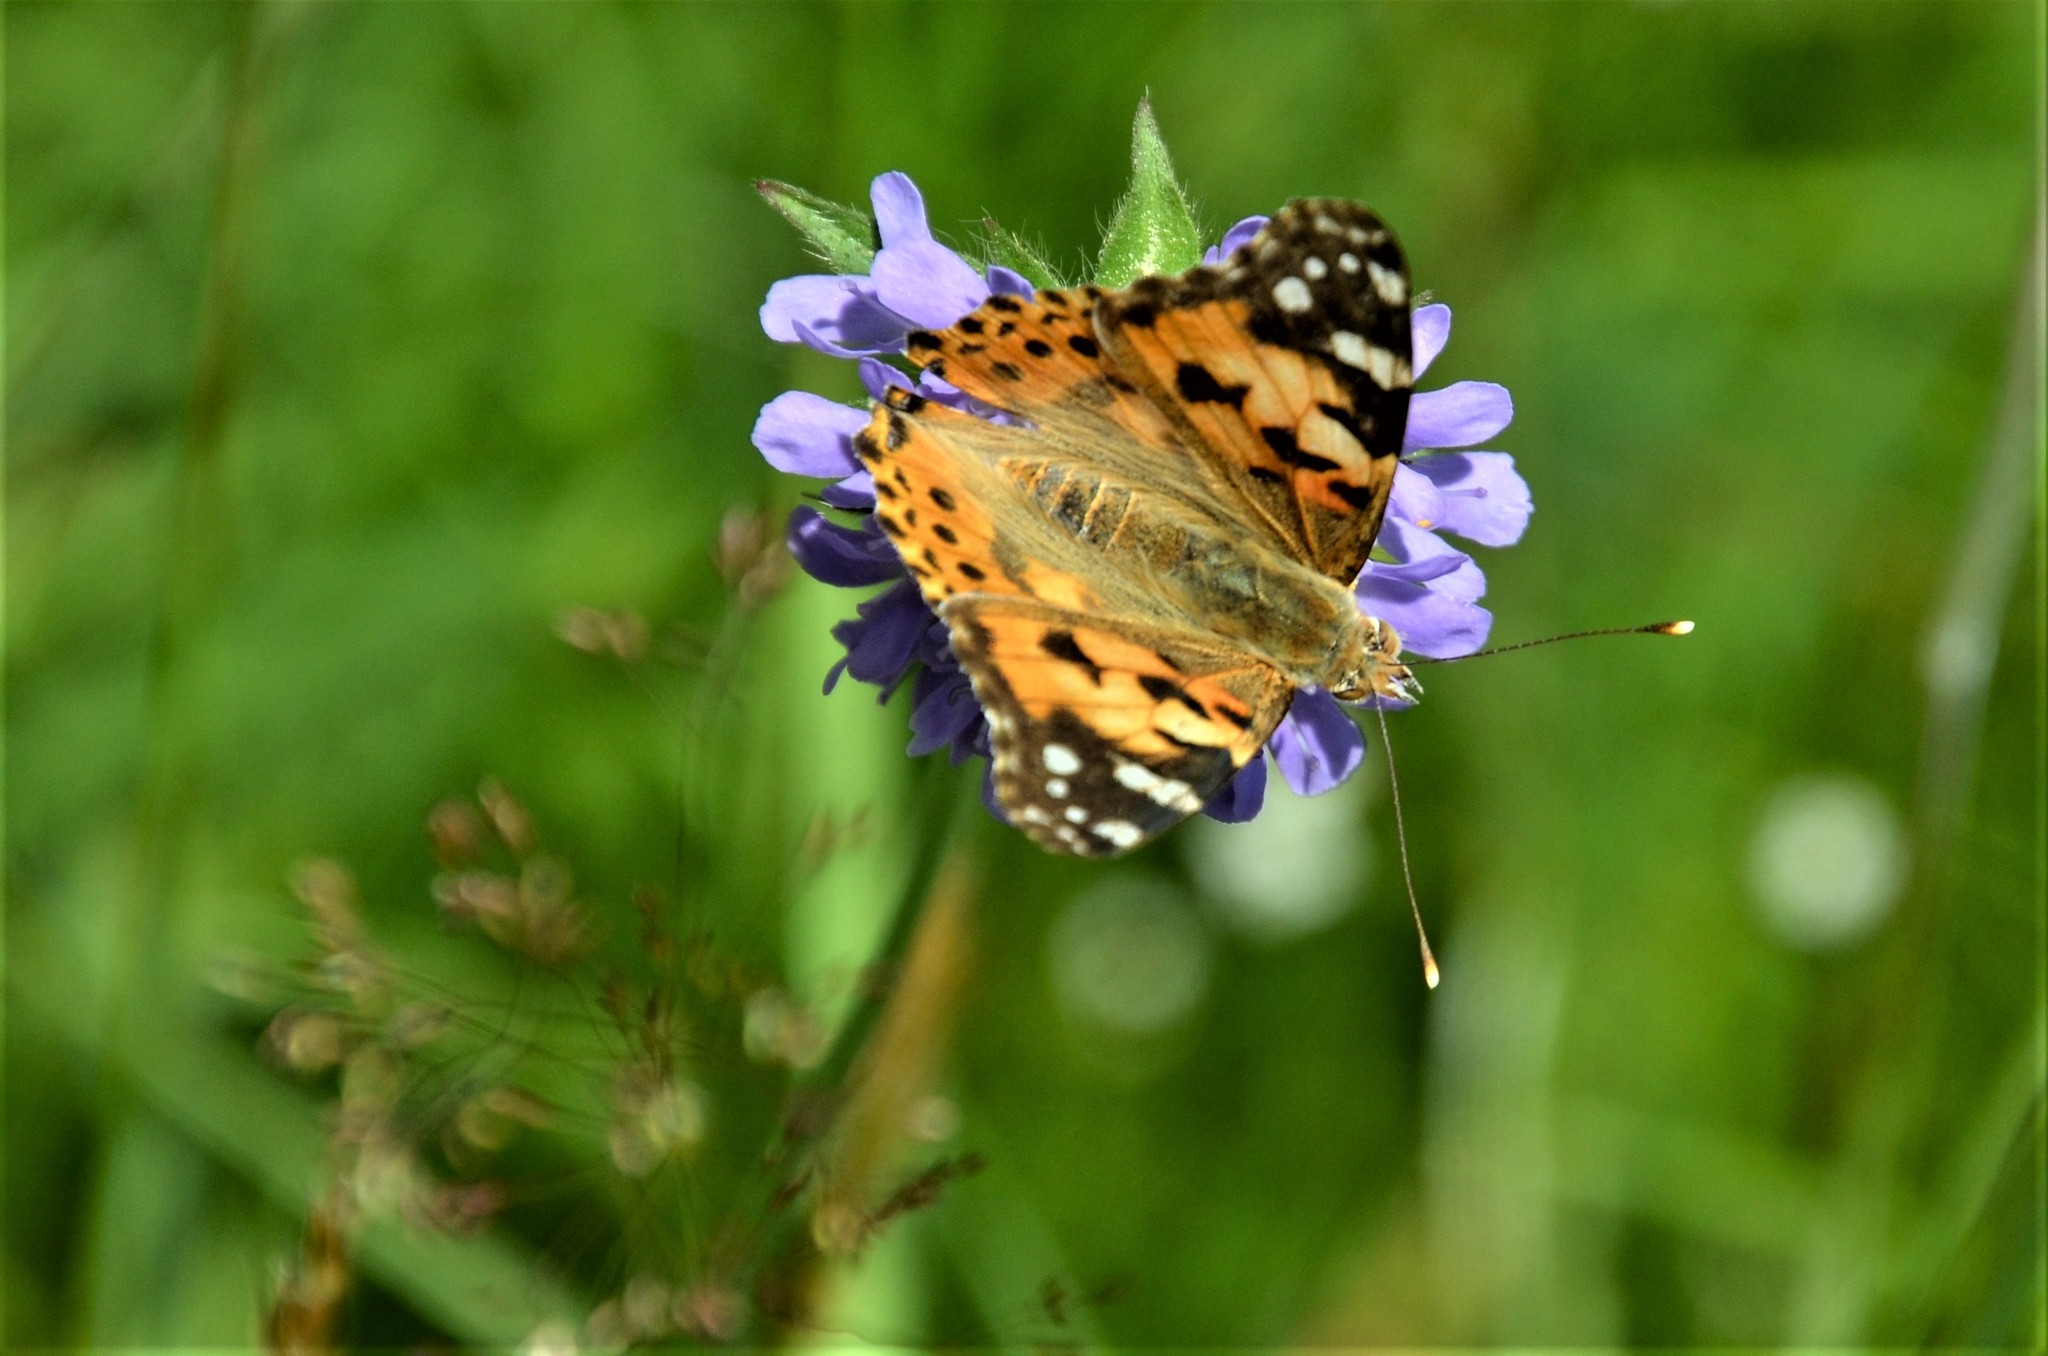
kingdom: Animalia
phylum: Arthropoda
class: Insecta
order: Lepidoptera
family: Nymphalidae
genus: Vanessa
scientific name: Vanessa cardui
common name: Painted lady
